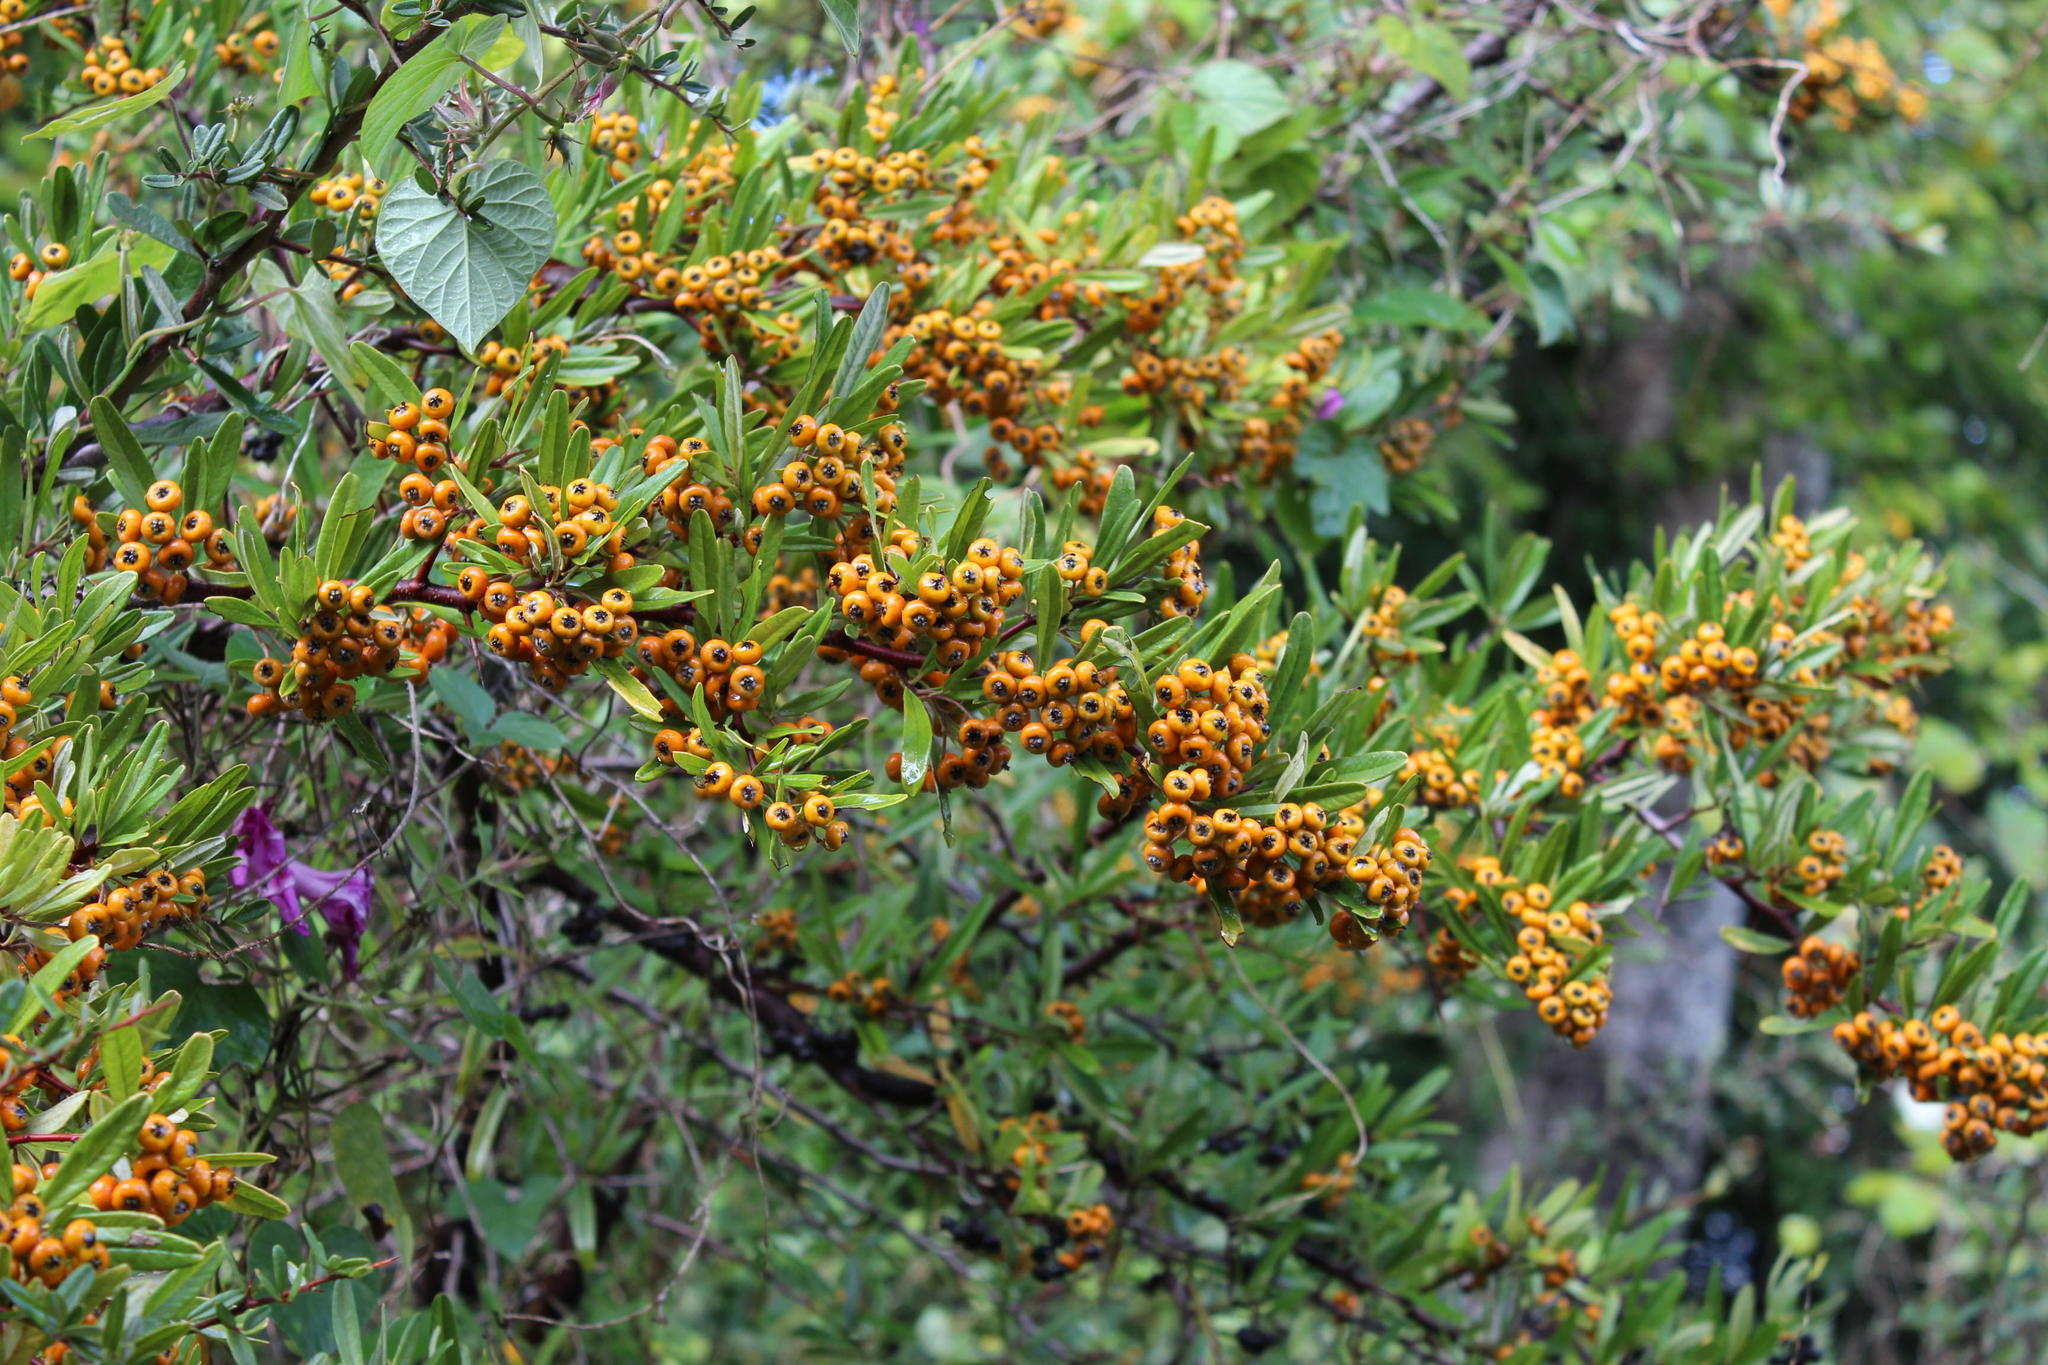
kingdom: Plantae
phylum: Tracheophyta
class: Magnoliopsida
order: Rosales
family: Rosaceae
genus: Pyracantha
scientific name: Pyracantha angustifolia
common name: Narrowleaf firethorn
